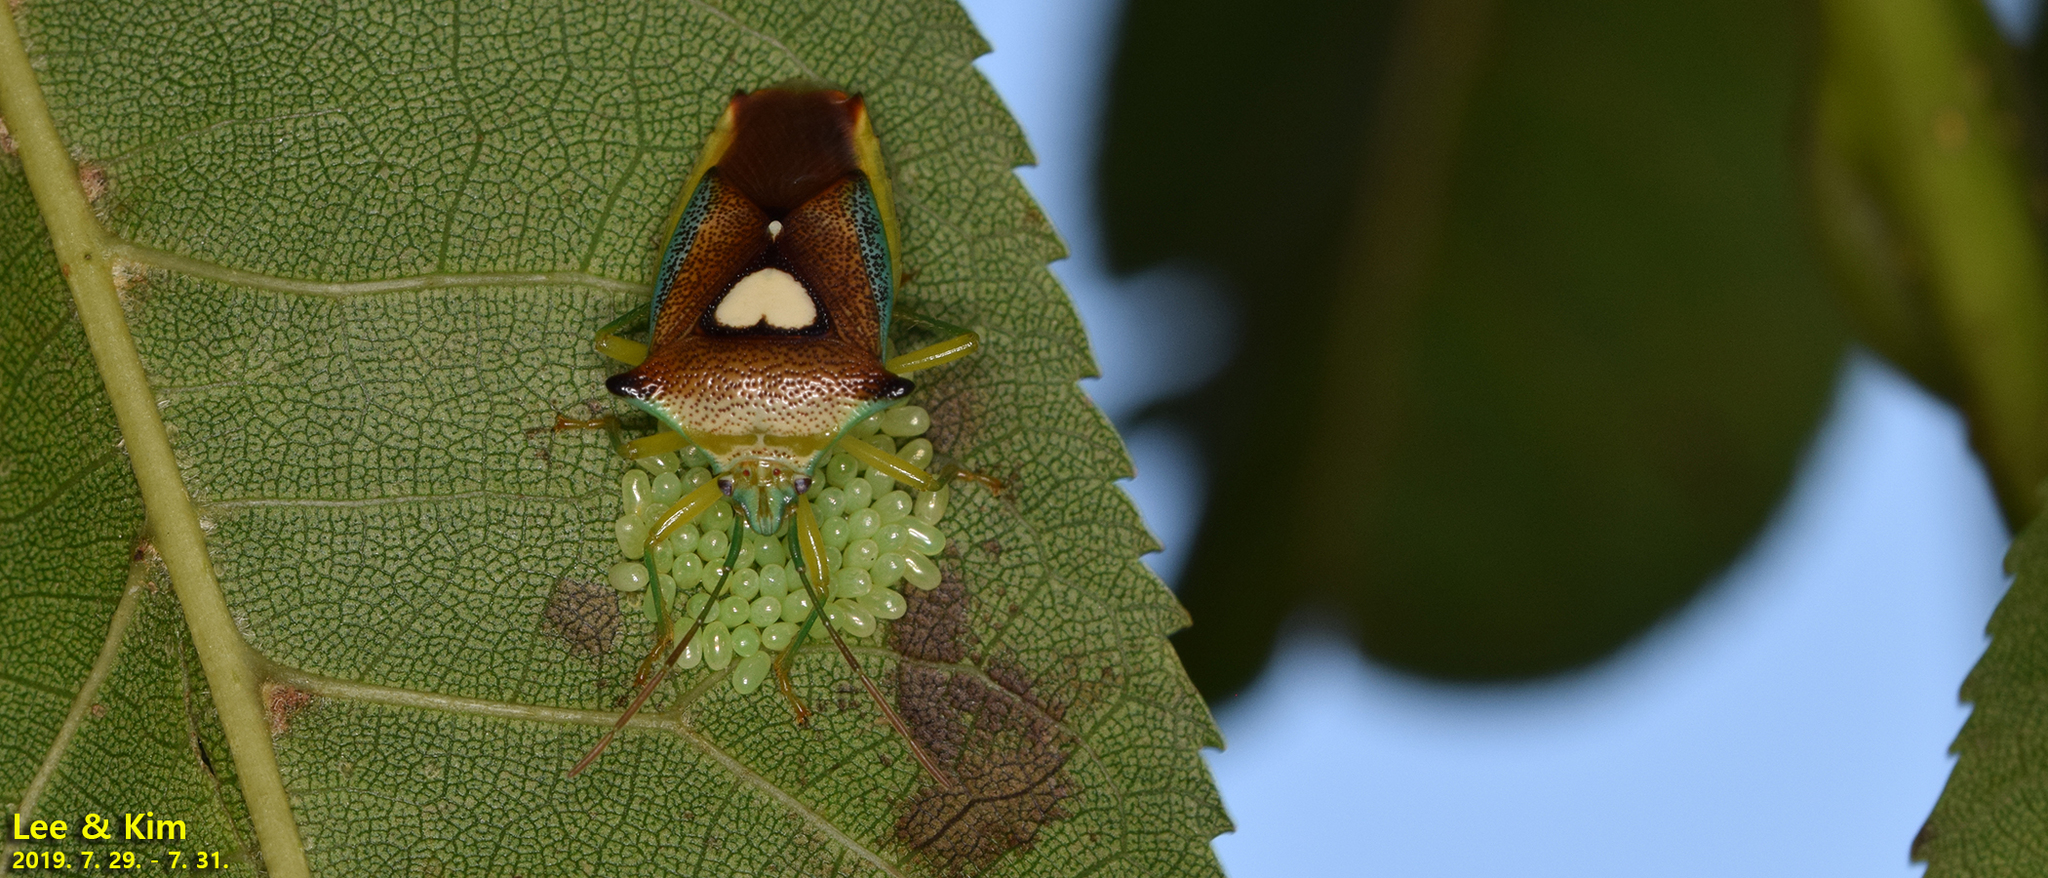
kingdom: Animalia
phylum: Arthropoda
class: Insecta
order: Hemiptera
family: Acanthosomatidae
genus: Sastragala
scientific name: Sastragala esakii
